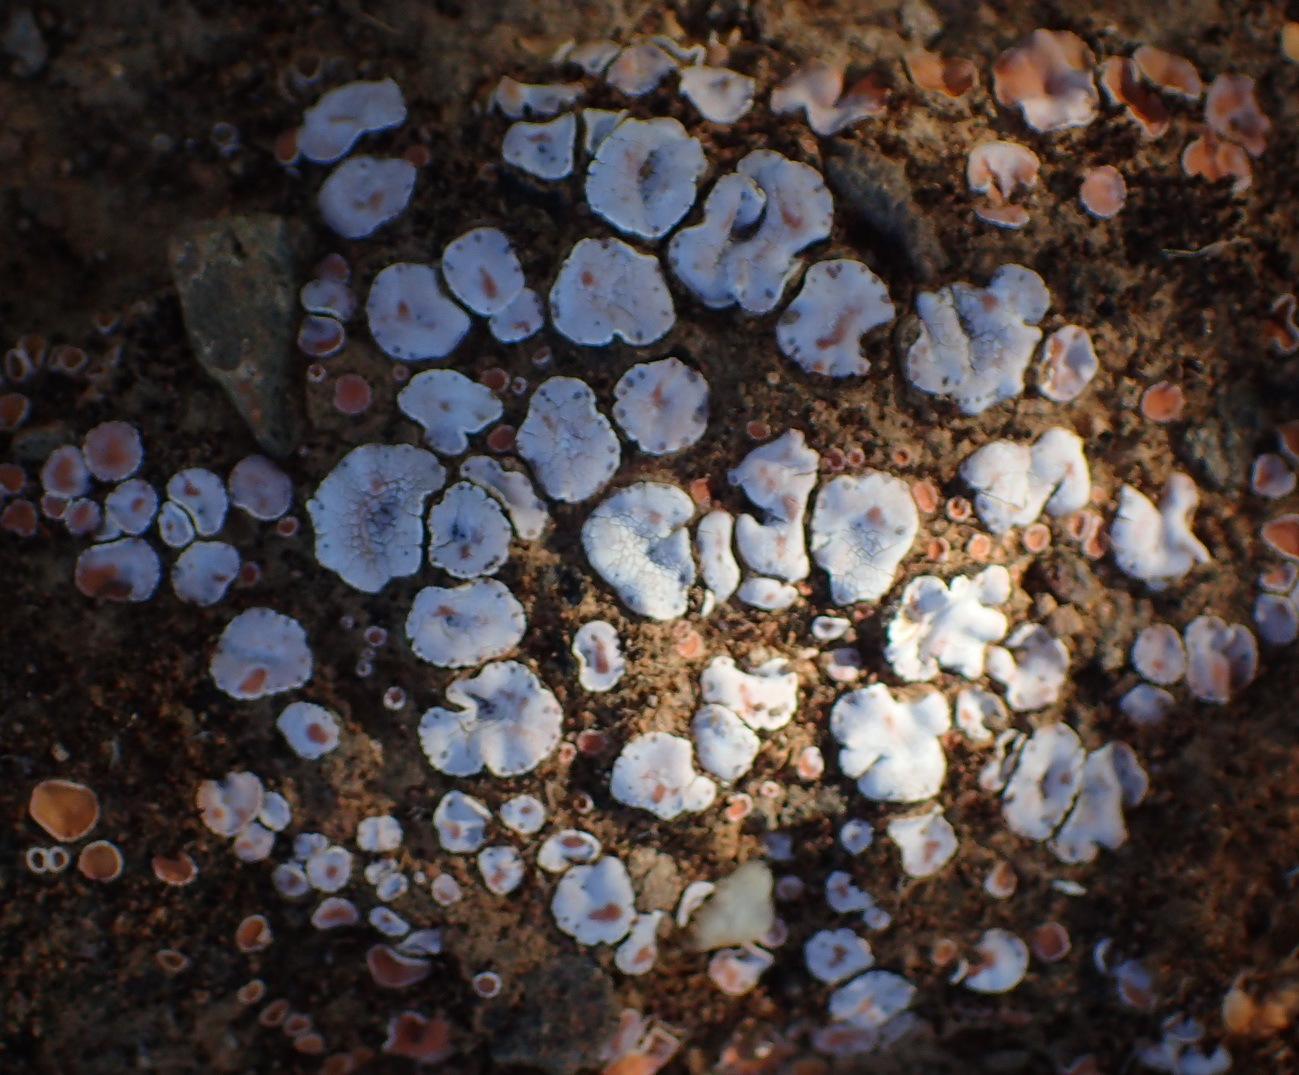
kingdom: Fungi
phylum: Ascomycota
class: Lecanoromycetes
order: Lecanorales
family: Psoraceae
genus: Psora
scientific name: Psora crenata
